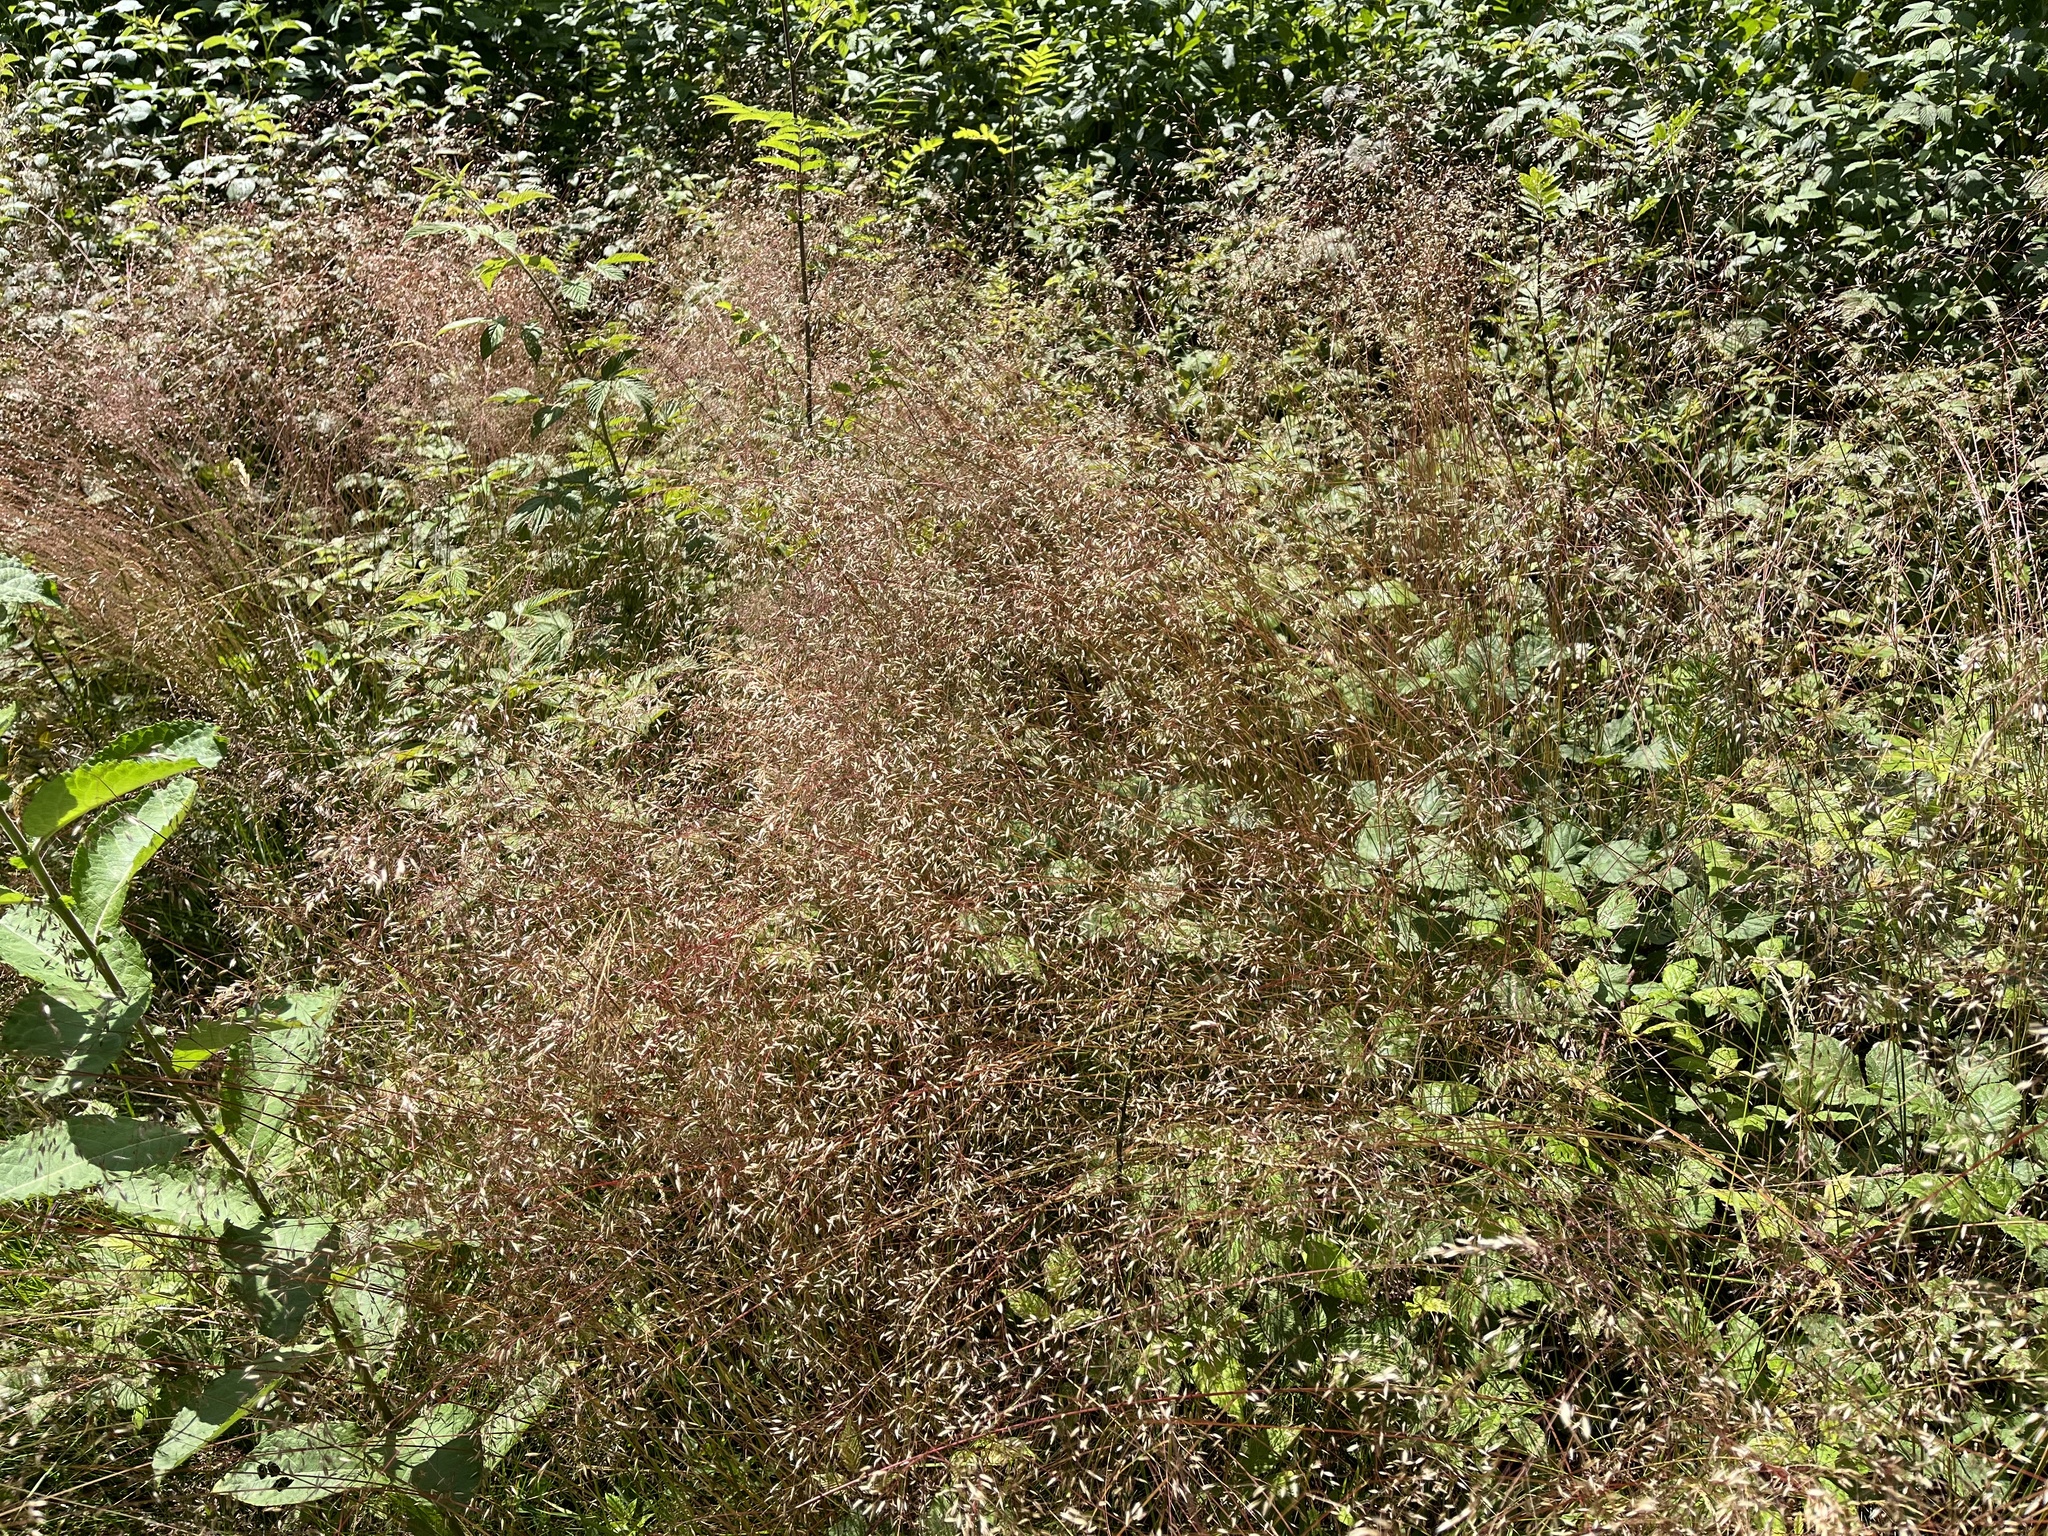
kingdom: Plantae
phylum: Tracheophyta
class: Liliopsida
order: Poales
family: Poaceae
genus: Avenella
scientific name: Avenella flexuosa
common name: Wavy hairgrass
